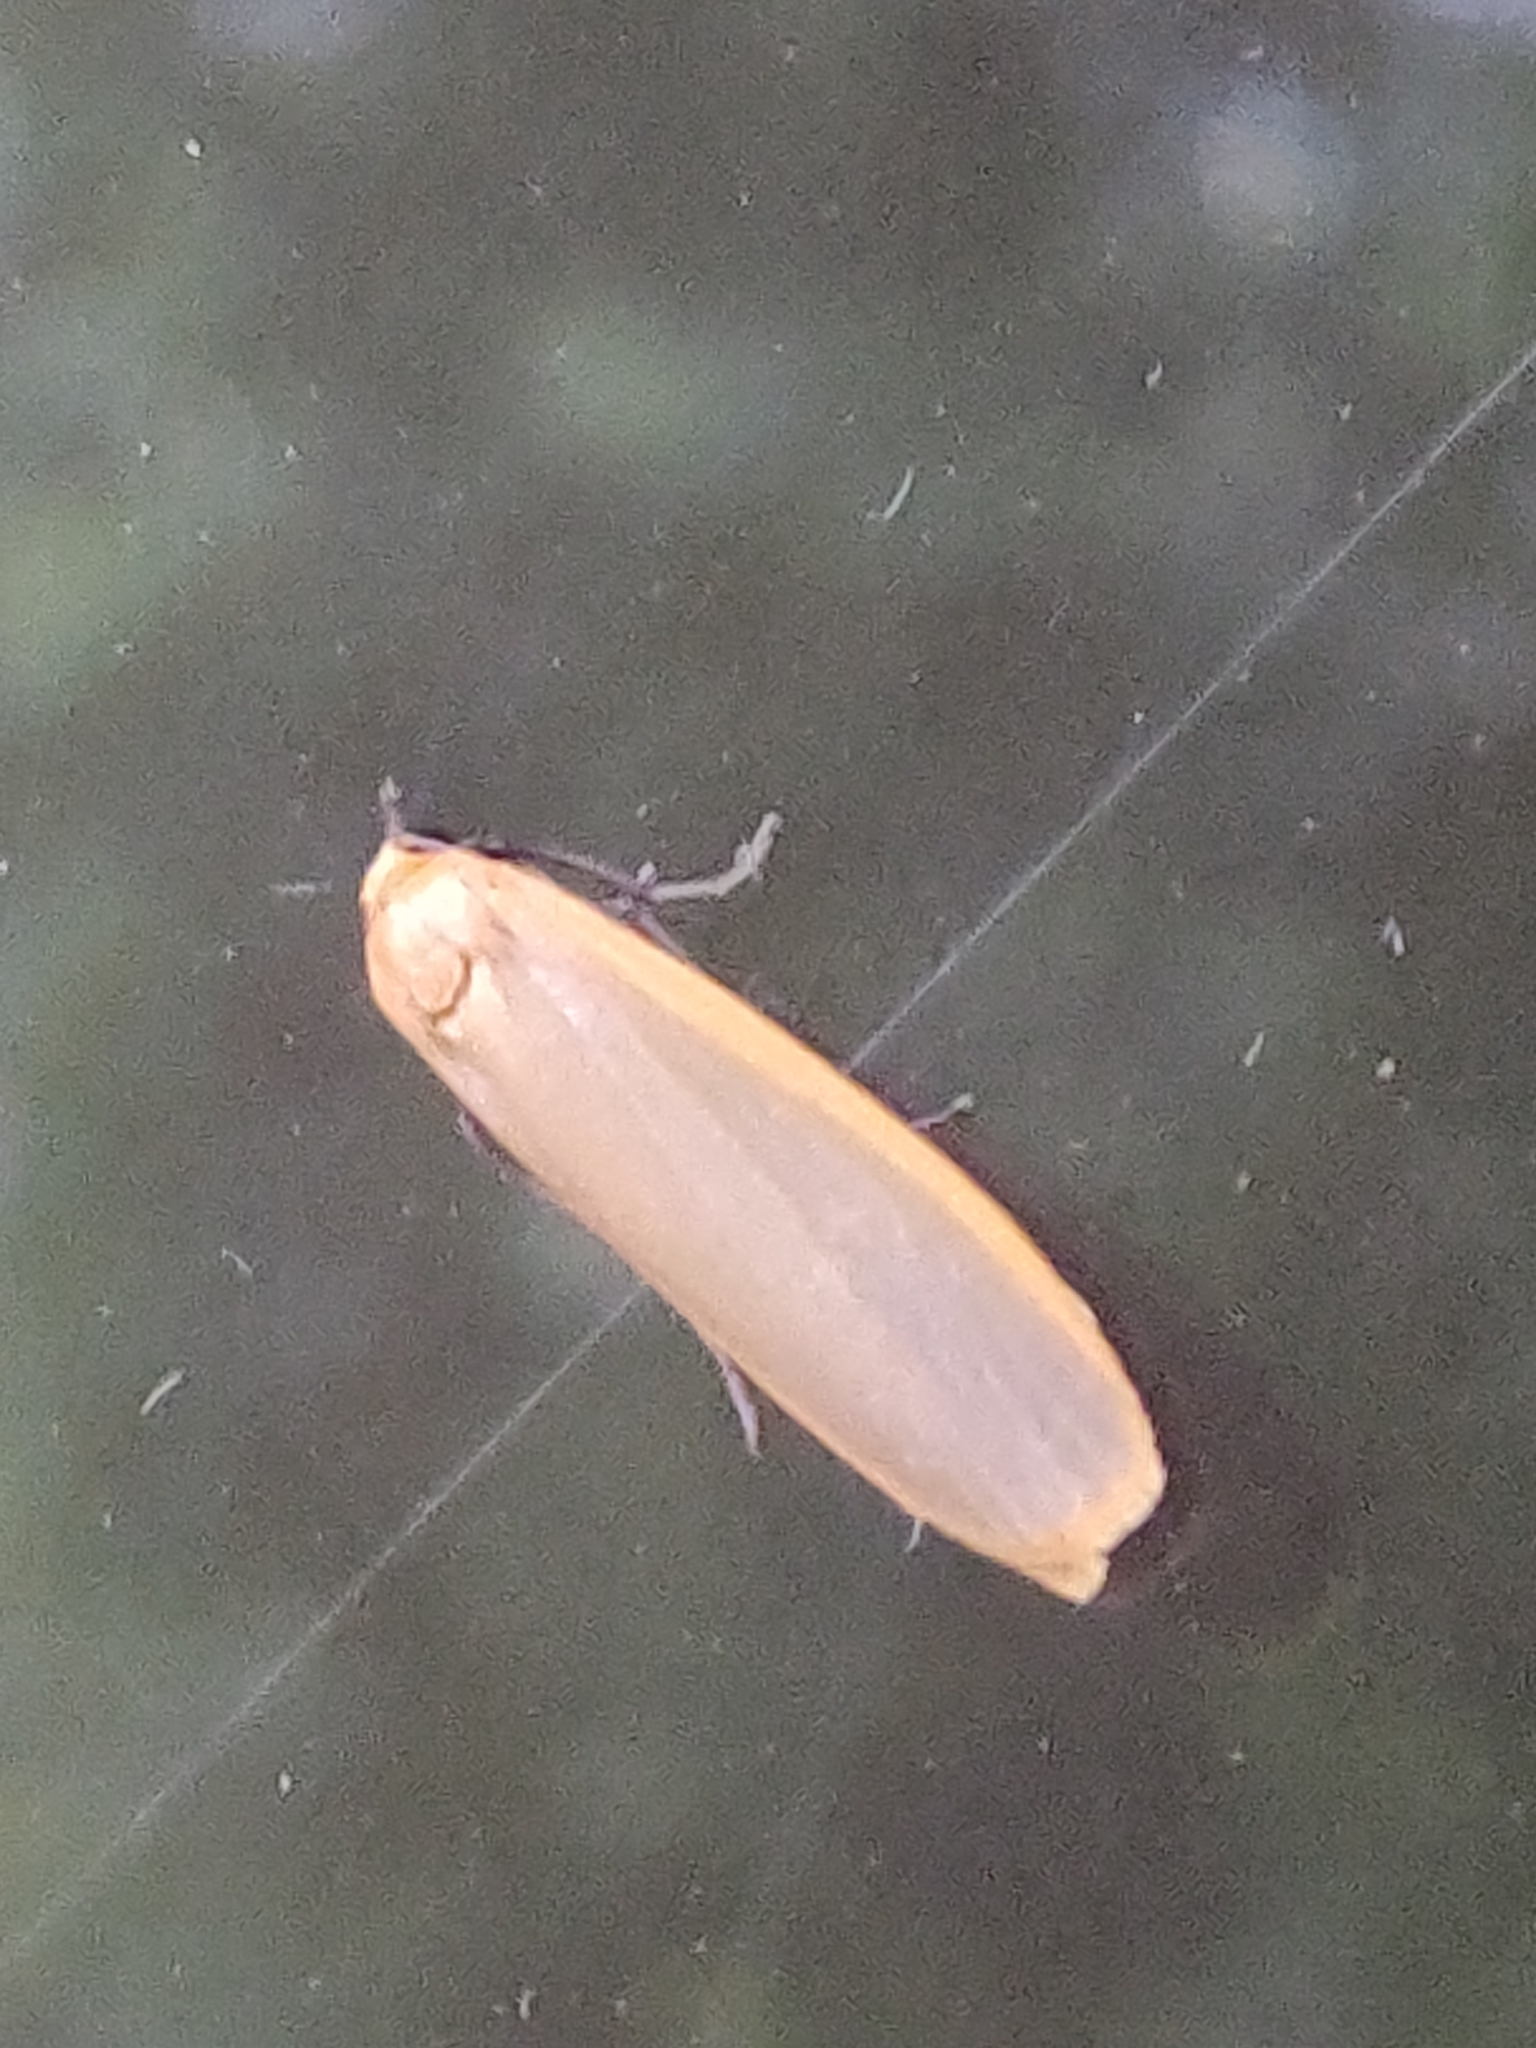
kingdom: Animalia
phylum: Arthropoda
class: Insecta
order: Lepidoptera
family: Erebidae
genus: Katha
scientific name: Katha depressa
